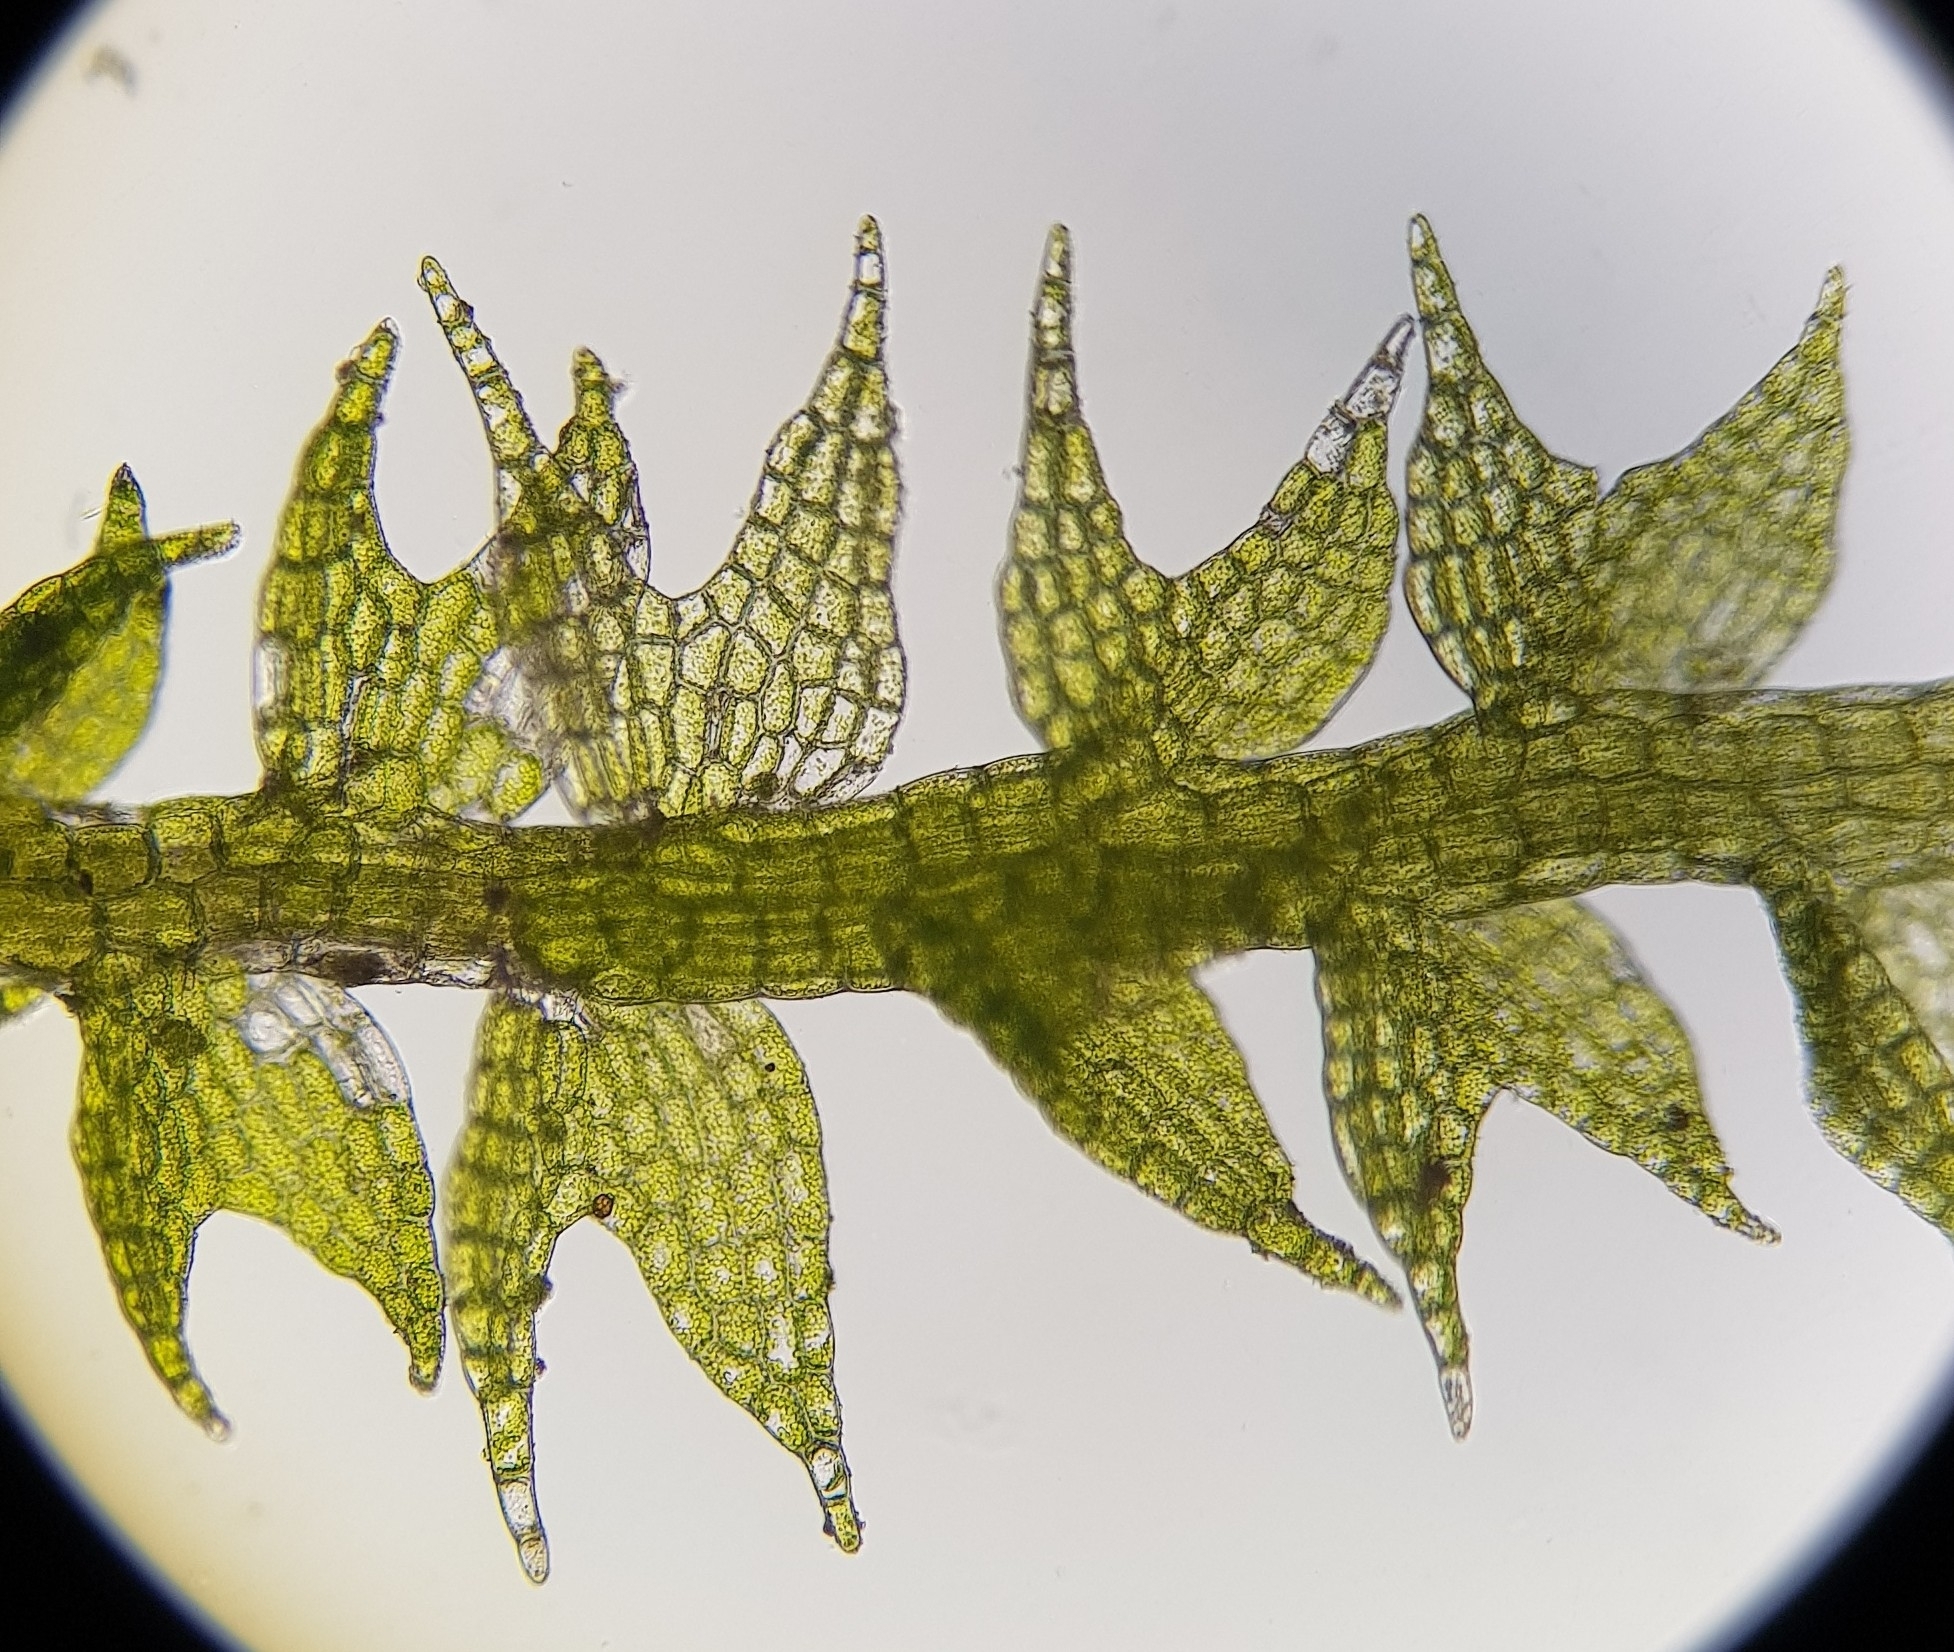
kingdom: Plantae
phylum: Marchantiophyta
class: Jungermanniopsida
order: Jungermanniales
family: Cephaloziaceae
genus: Cephalozia
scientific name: Cephalozia bicuspidata
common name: Two-horned pincerwort
